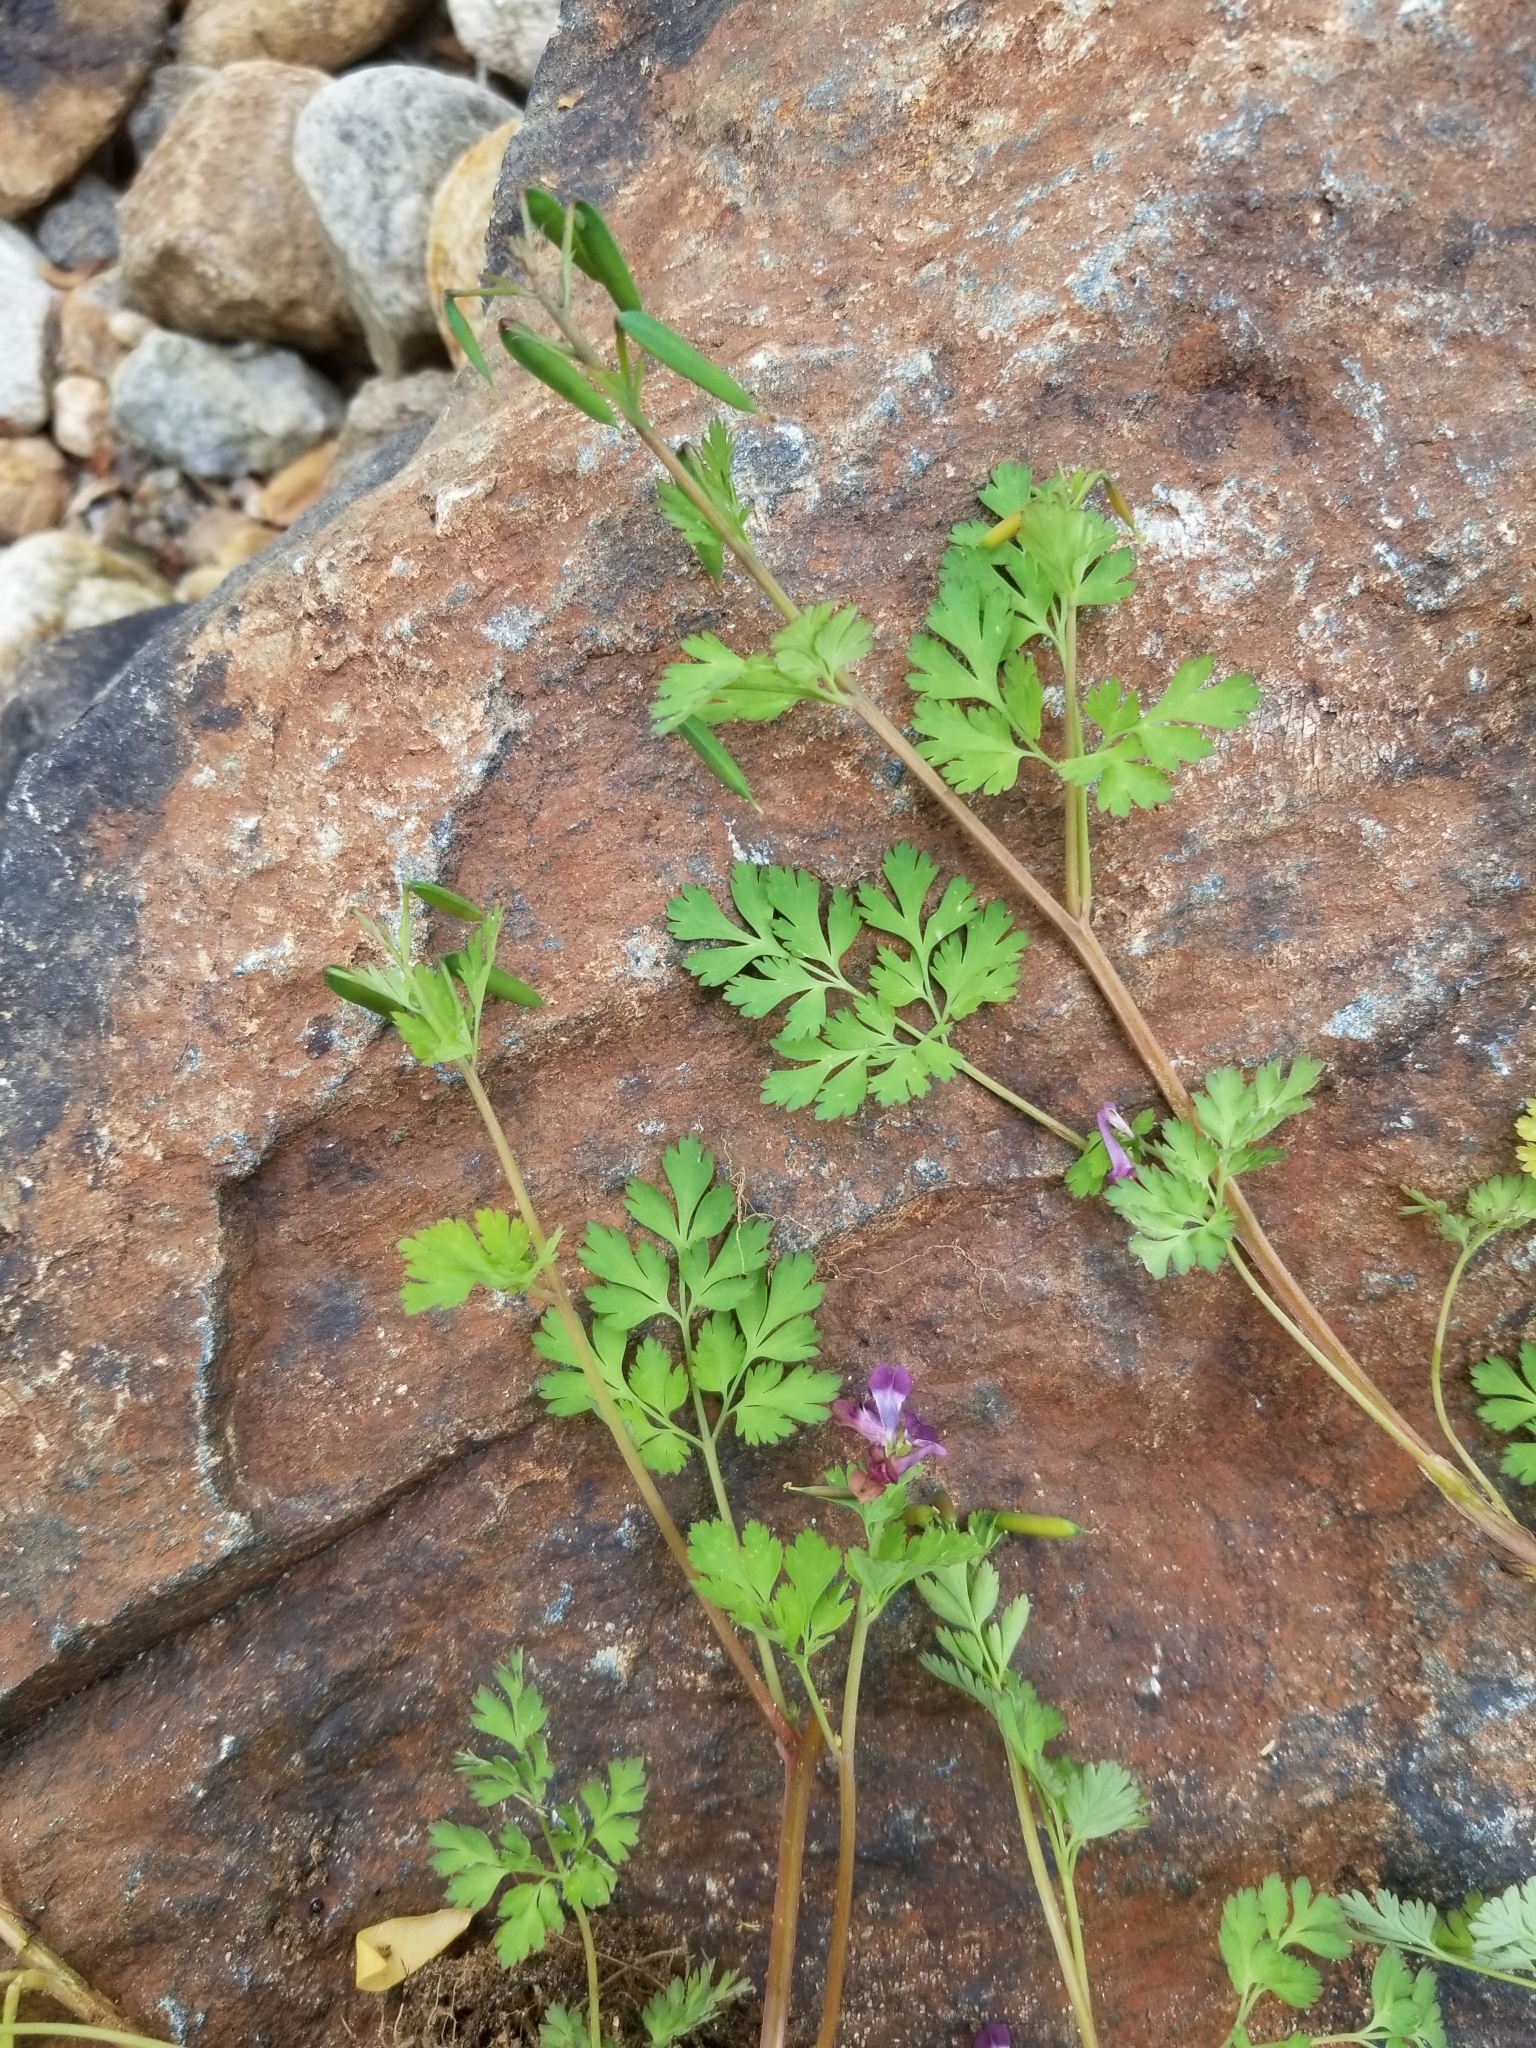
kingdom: Plantae
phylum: Tracheophyta
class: Magnoliopsida
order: Ranunculales
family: Papaveraceae
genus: Corydalis
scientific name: Corydalis incisa
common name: Incised fumewort
